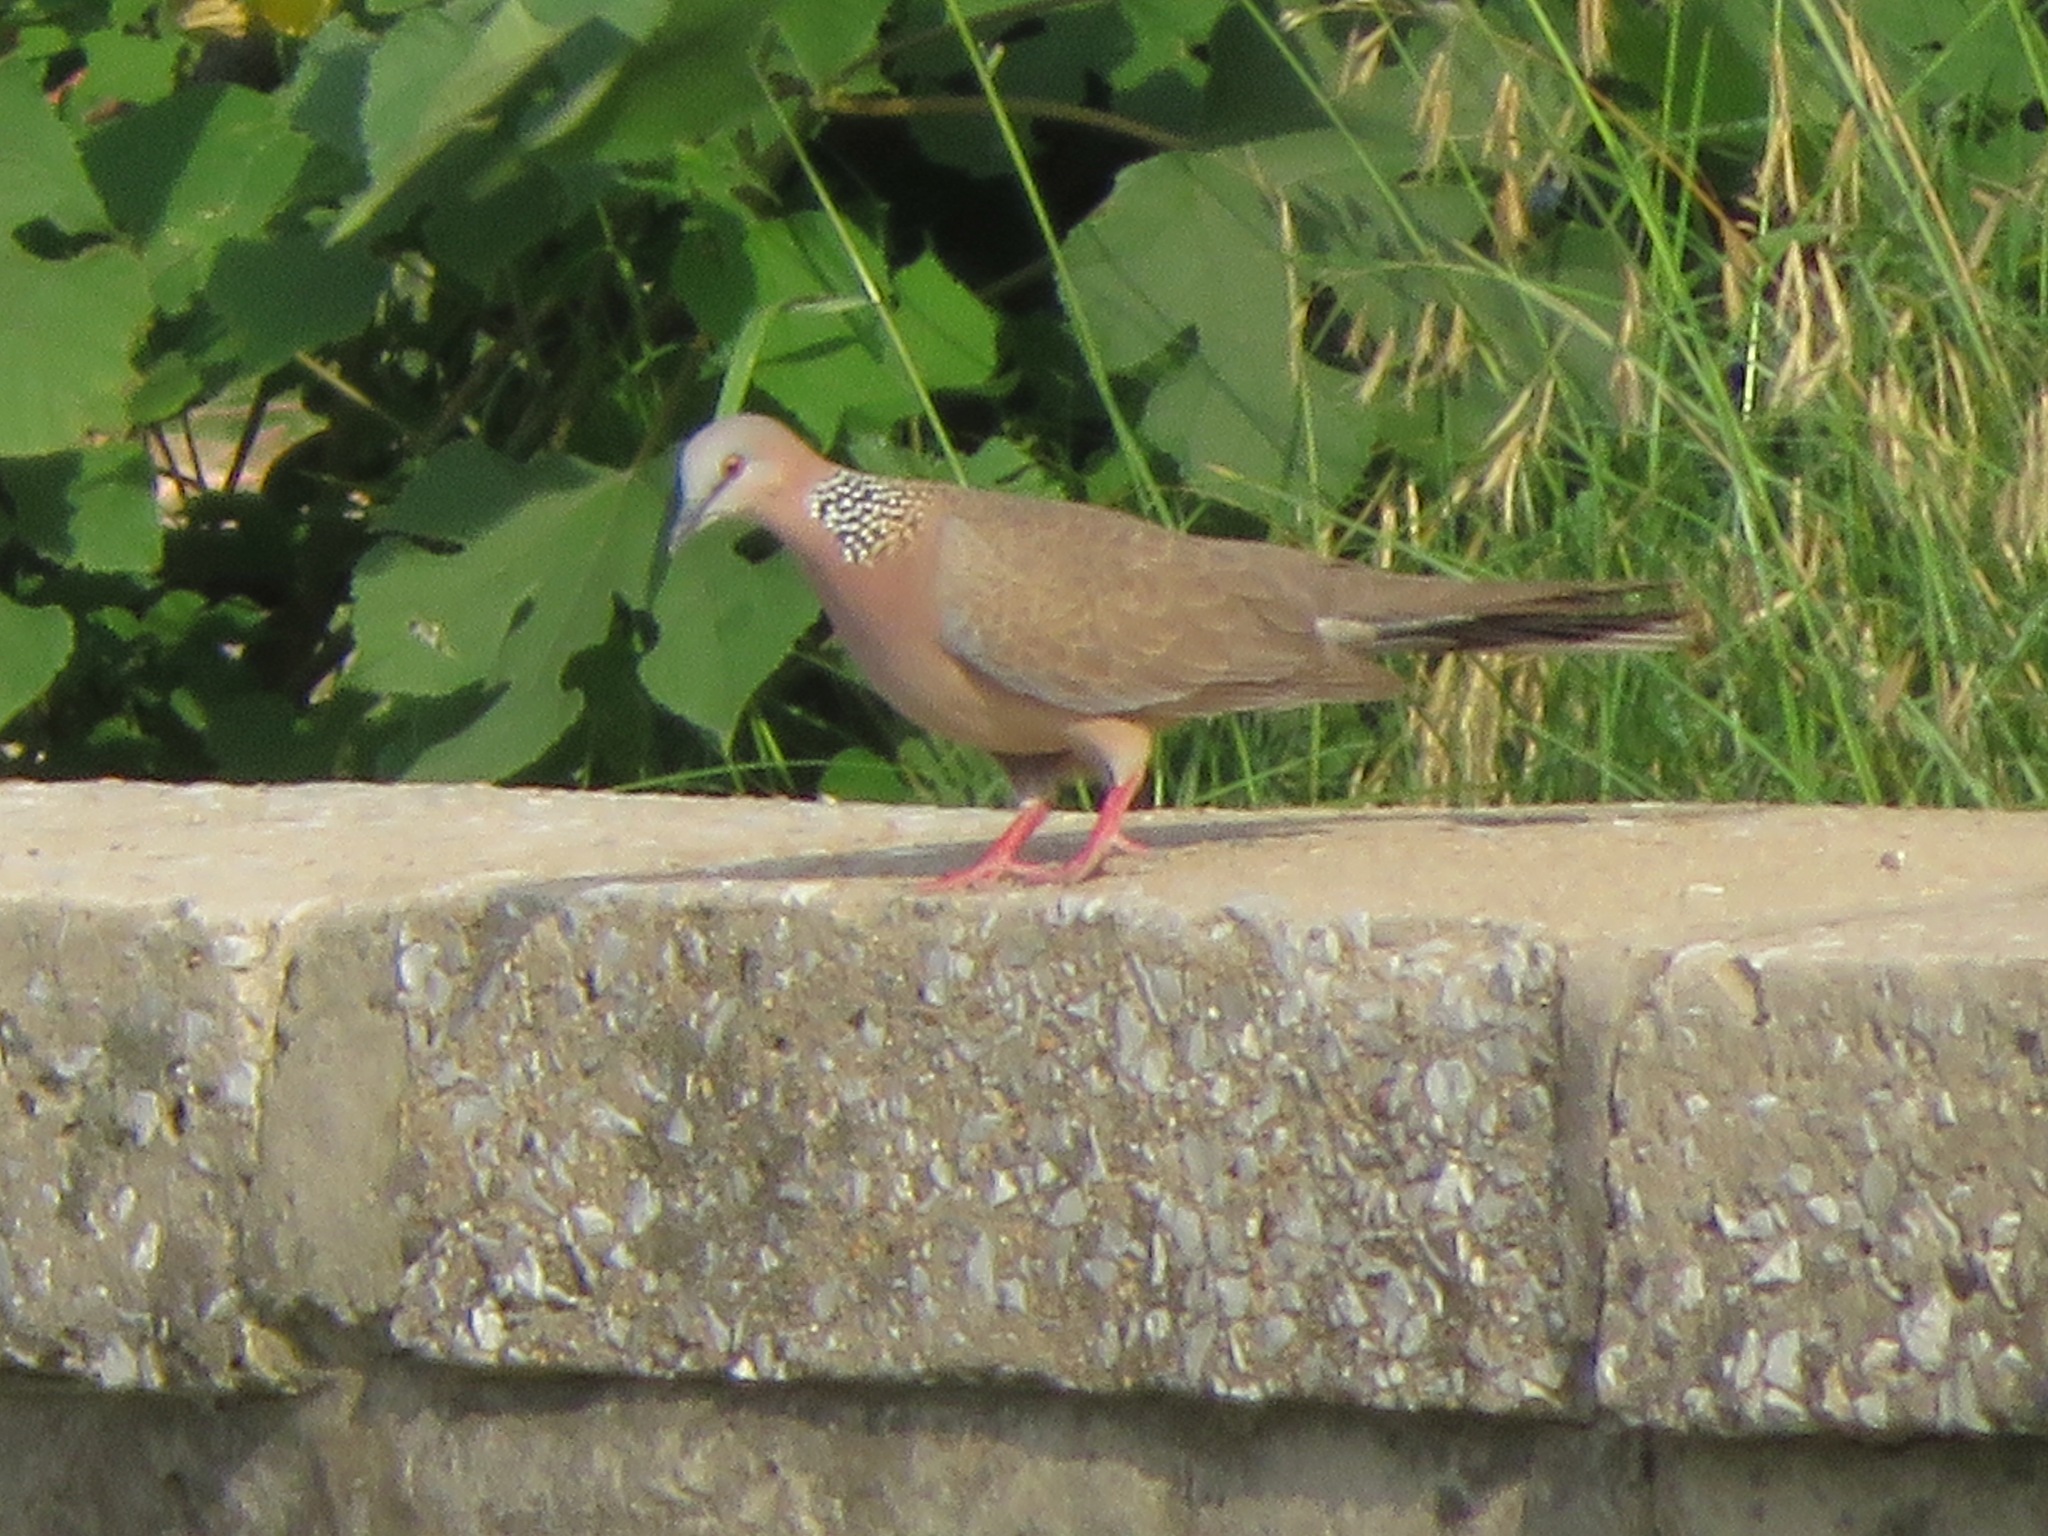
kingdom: Animalia
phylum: Chordata
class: Aves
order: Columbiformes
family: Columbidae
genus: Spilopelia
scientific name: Spilopelia chinensis
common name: Spotted dove
